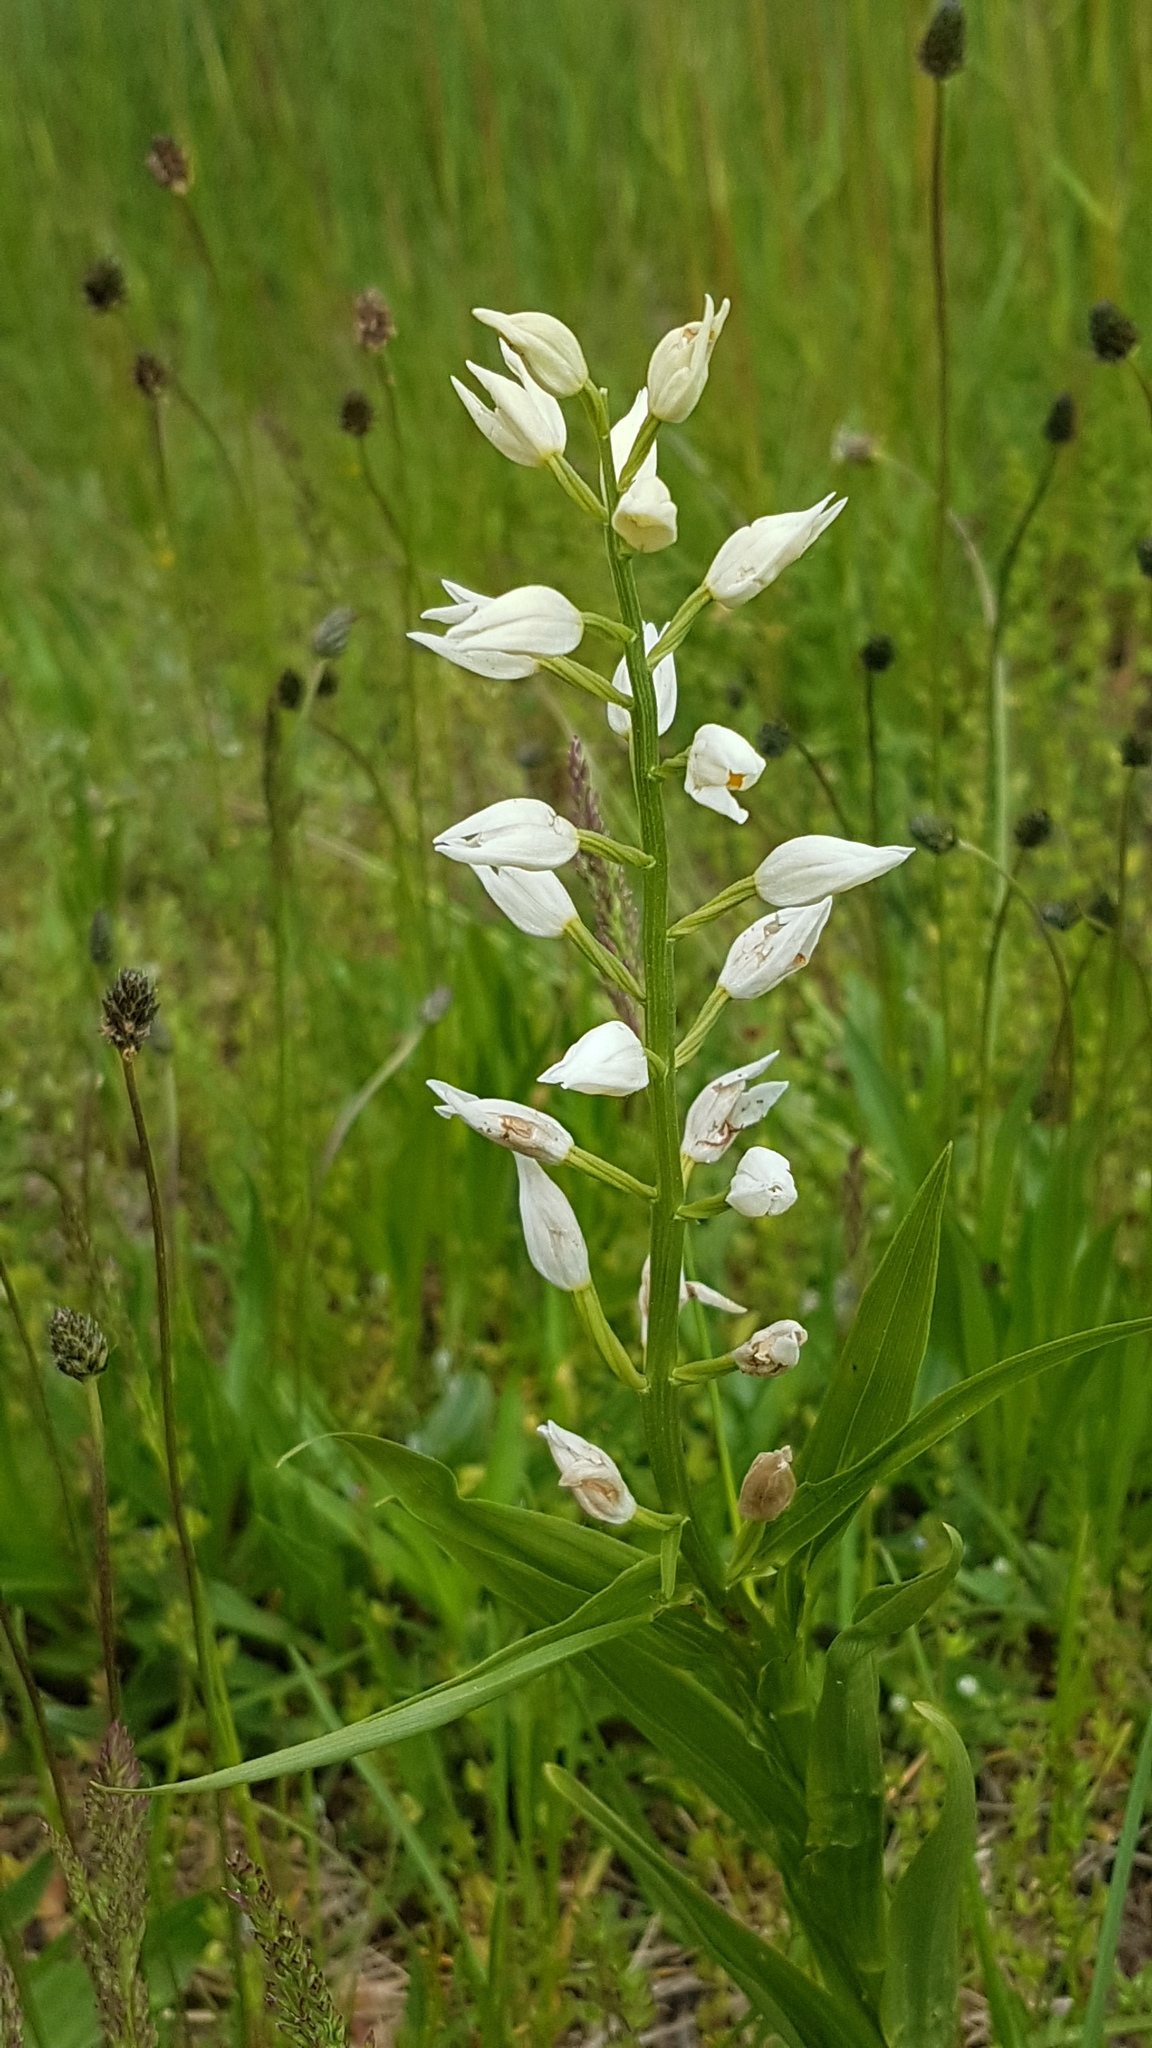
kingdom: Plantae
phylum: Tracheophyta
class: Liliopsida
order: Asparagales
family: Orchidaceae
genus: Cephalanthera
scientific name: Cephalanthera longifolia
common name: Narrow-leaved helleborine
